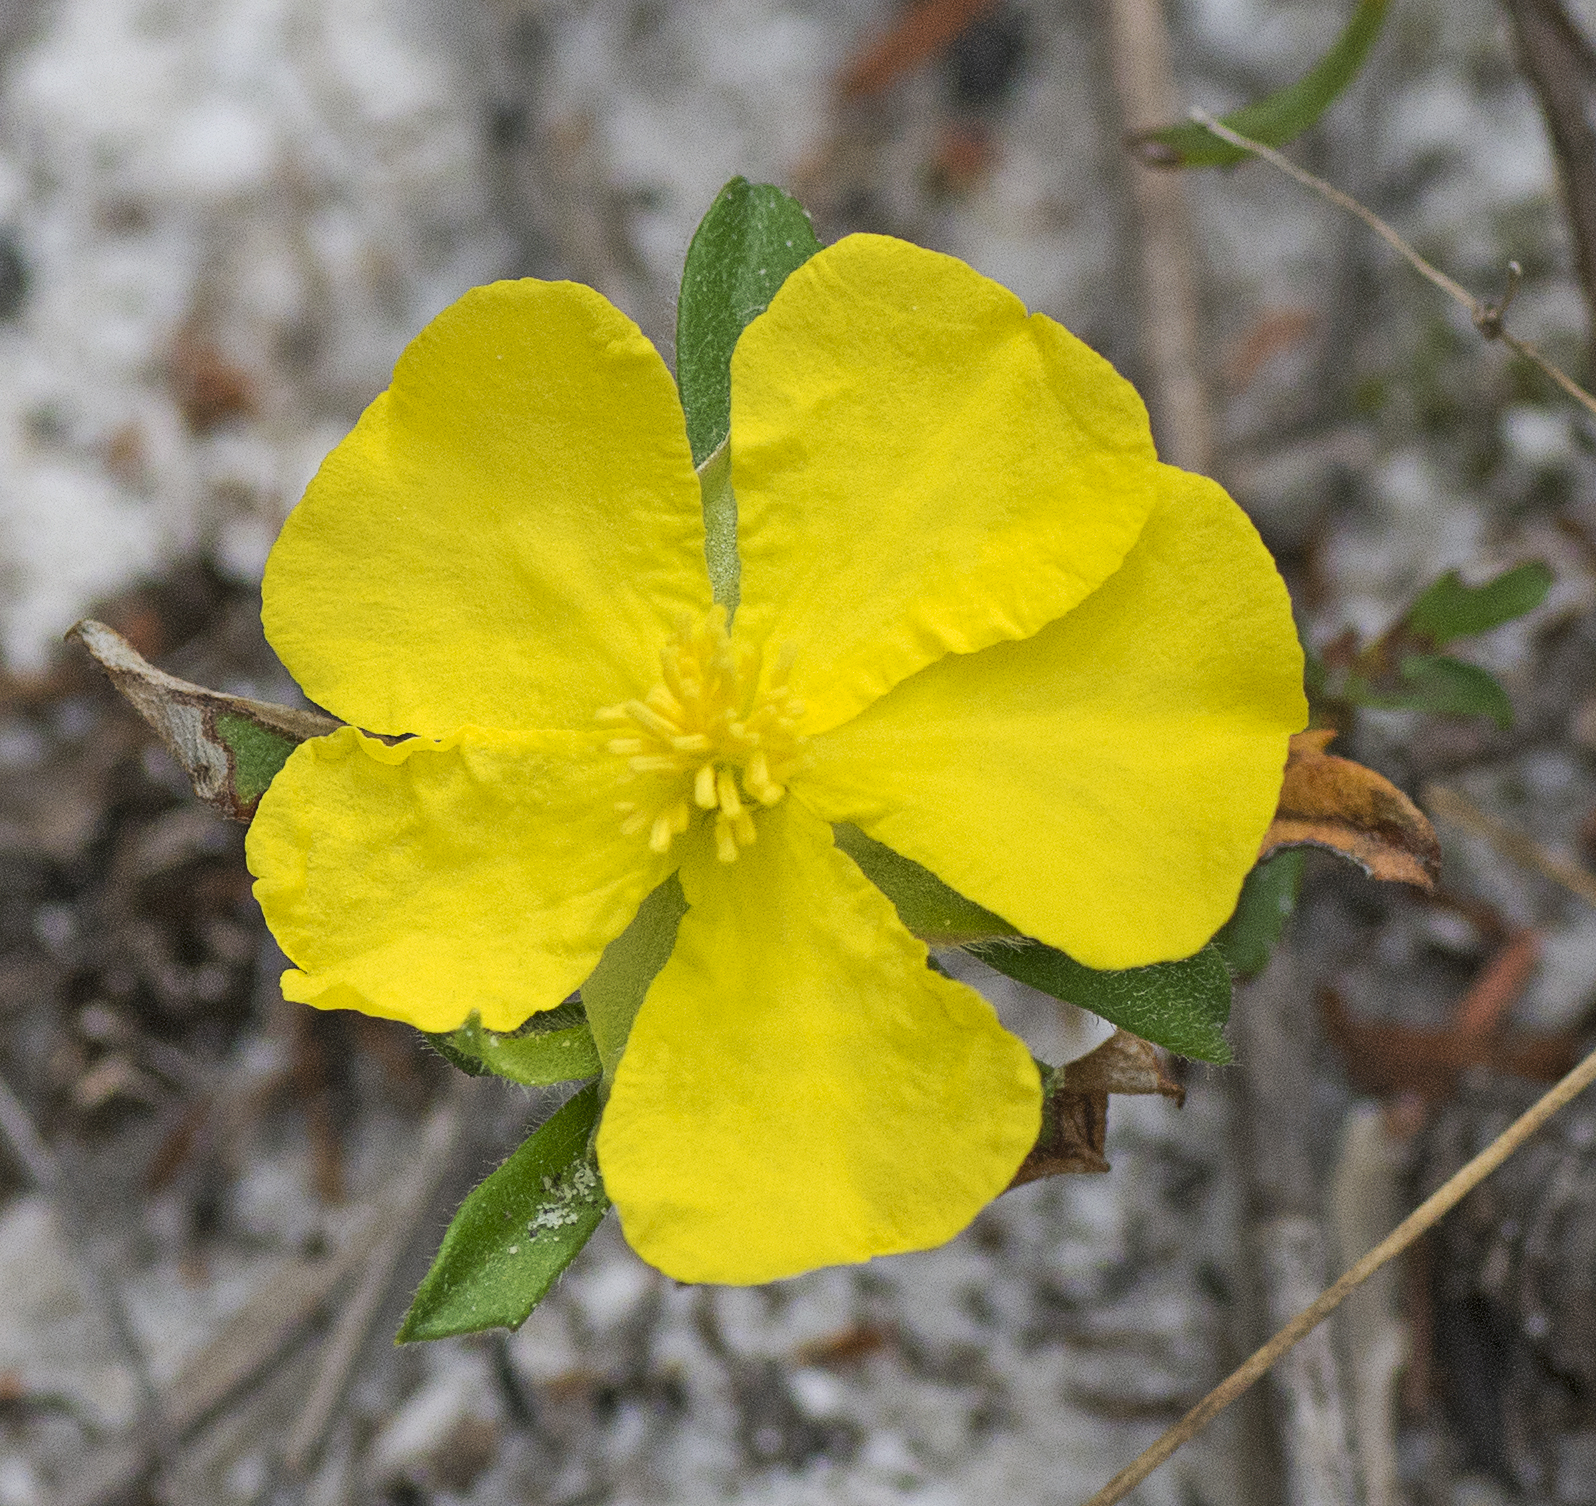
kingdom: Plantae
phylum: Tracheophyta
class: Magnoliopsida
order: Dilleniales
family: Dilleniaceae
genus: Hibbertia
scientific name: Hibbertia linearis
